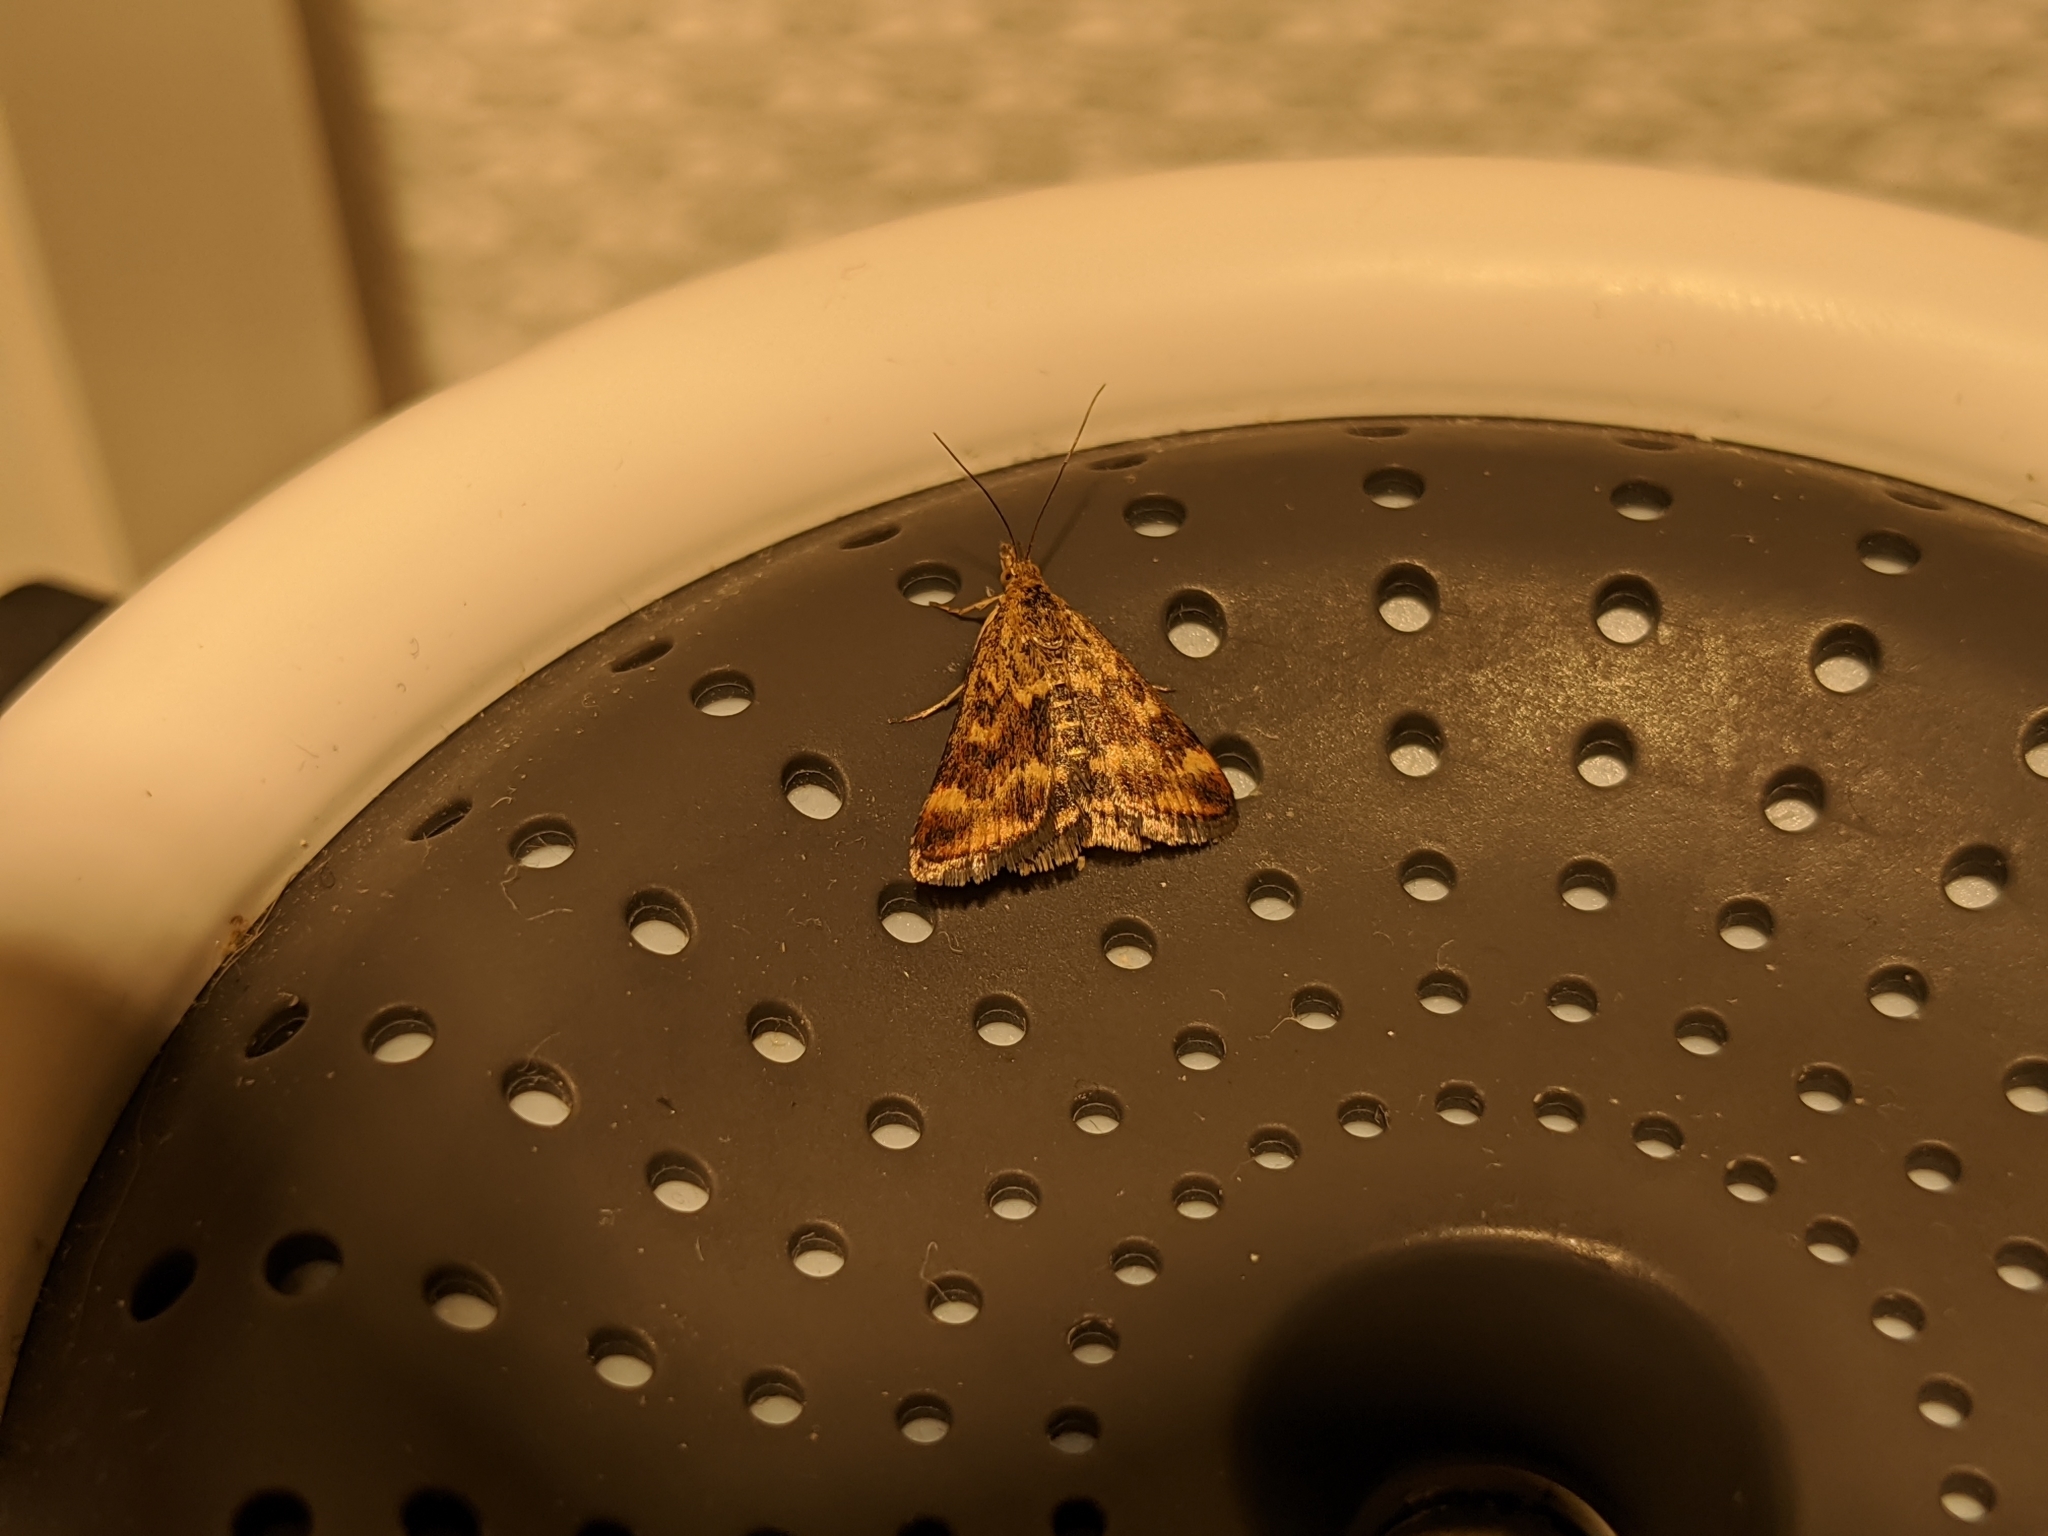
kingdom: Animalia
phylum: Arthropoda
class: Insecta
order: Lepidoptera
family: Crambidae
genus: Pyrausta
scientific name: Pyrausta despicata
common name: Straw-barred pearl
